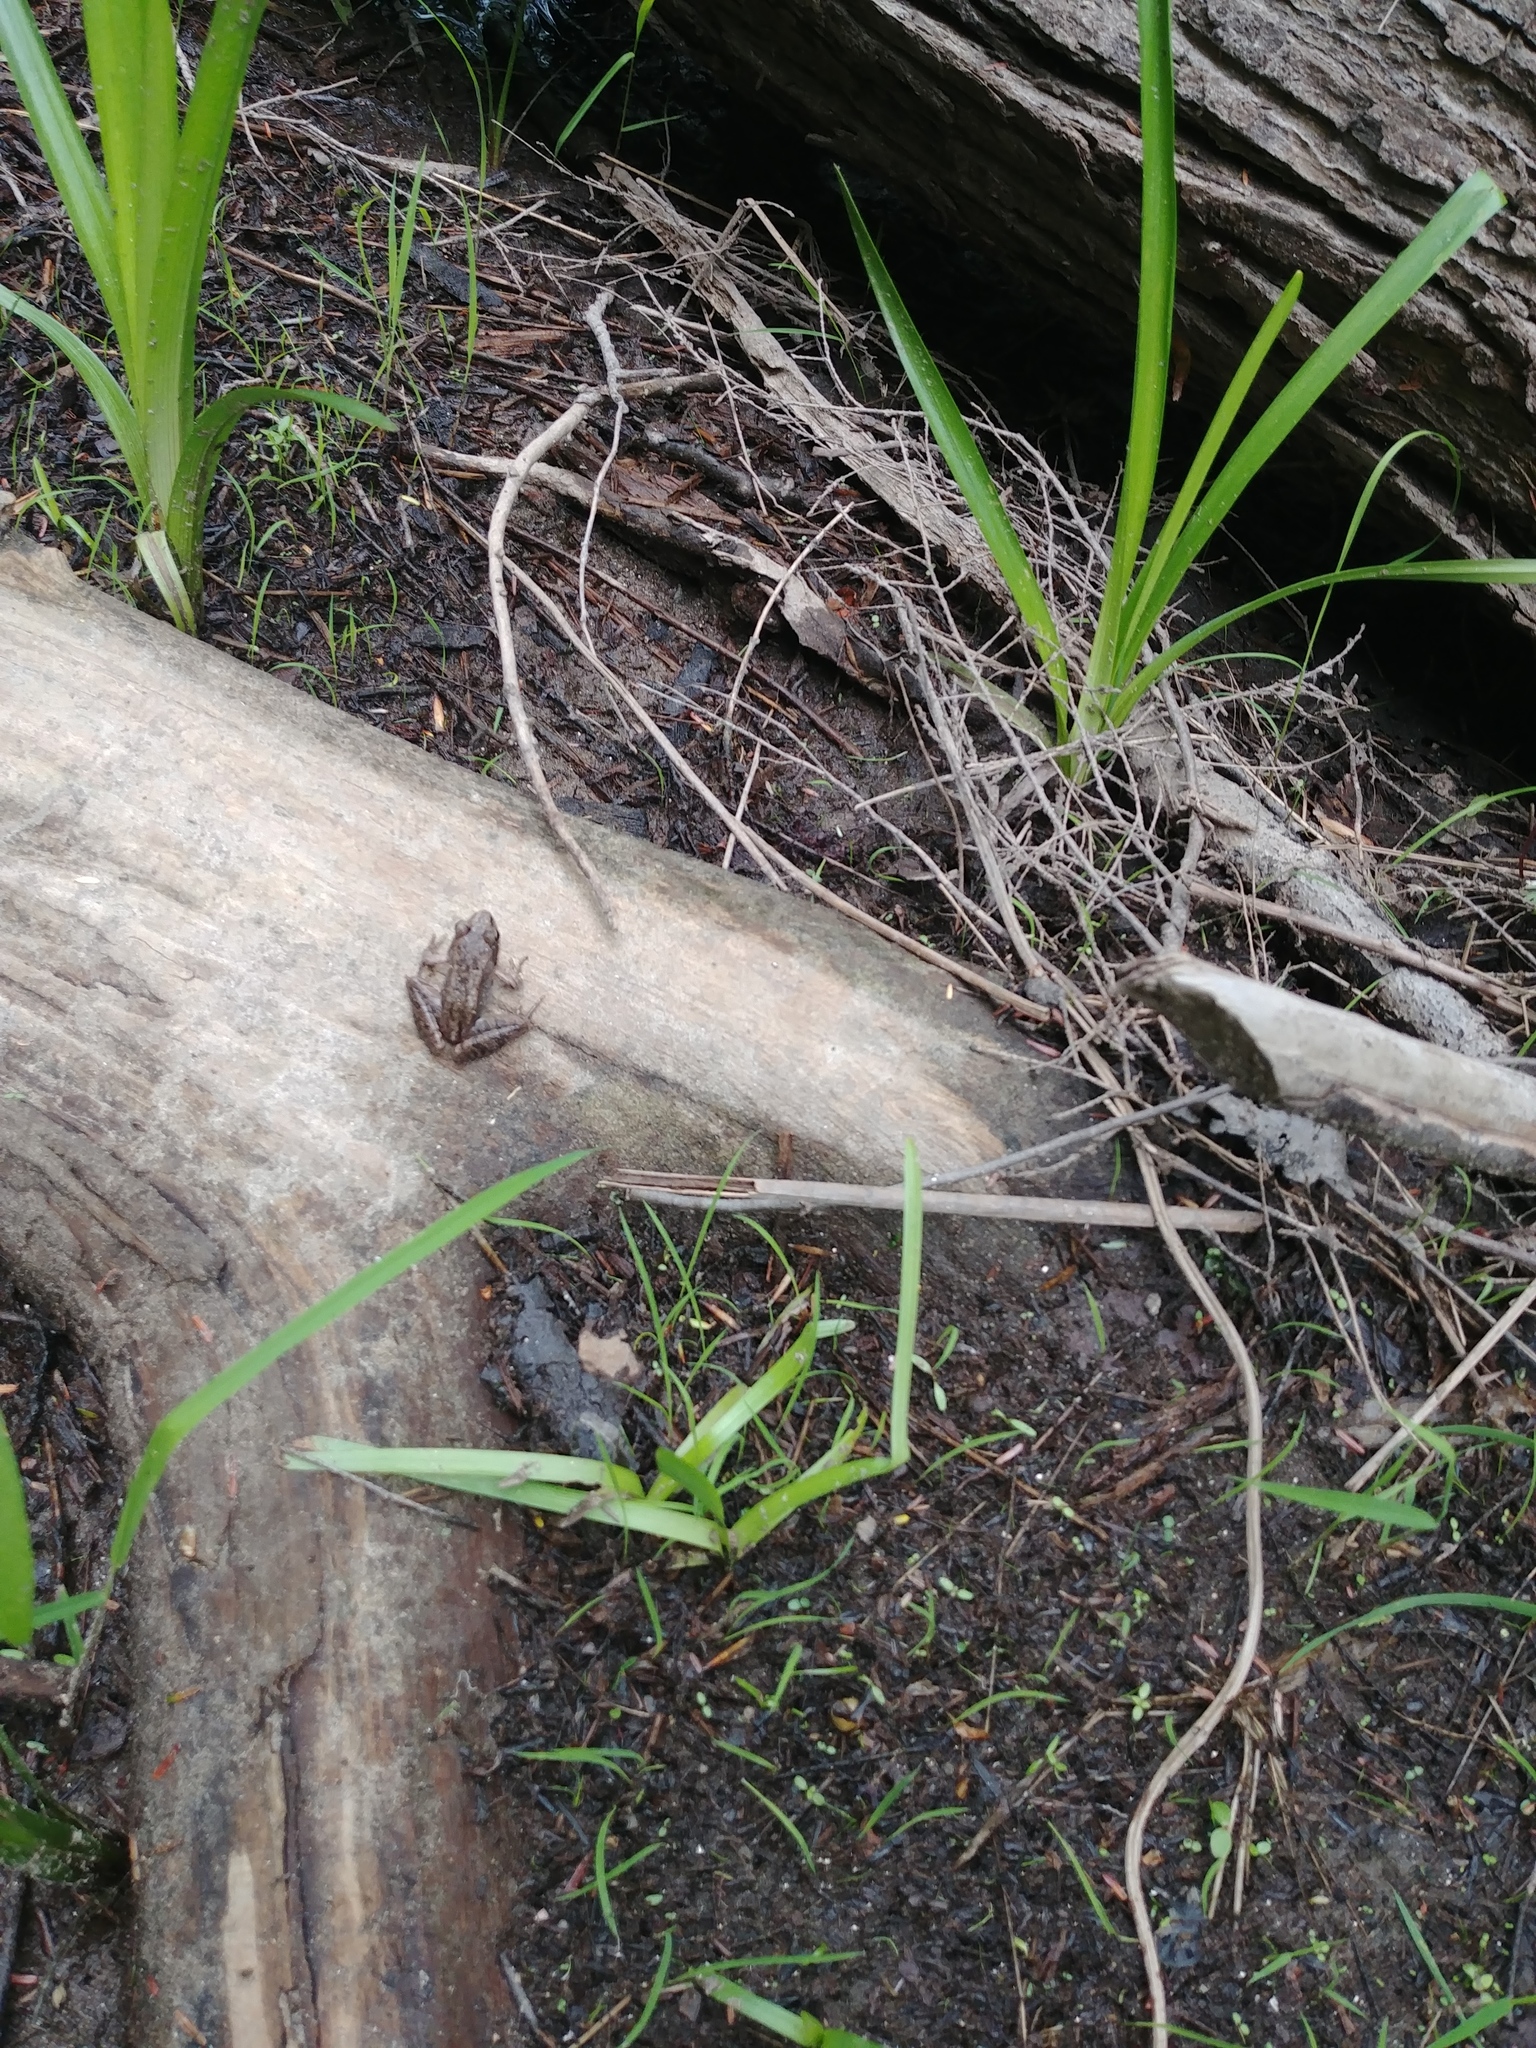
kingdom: Animalia
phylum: Chordata
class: Amphibia
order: Anura
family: Ranidae
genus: Lithobates
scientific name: Lithobates sylvaticus
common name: Wood frog
